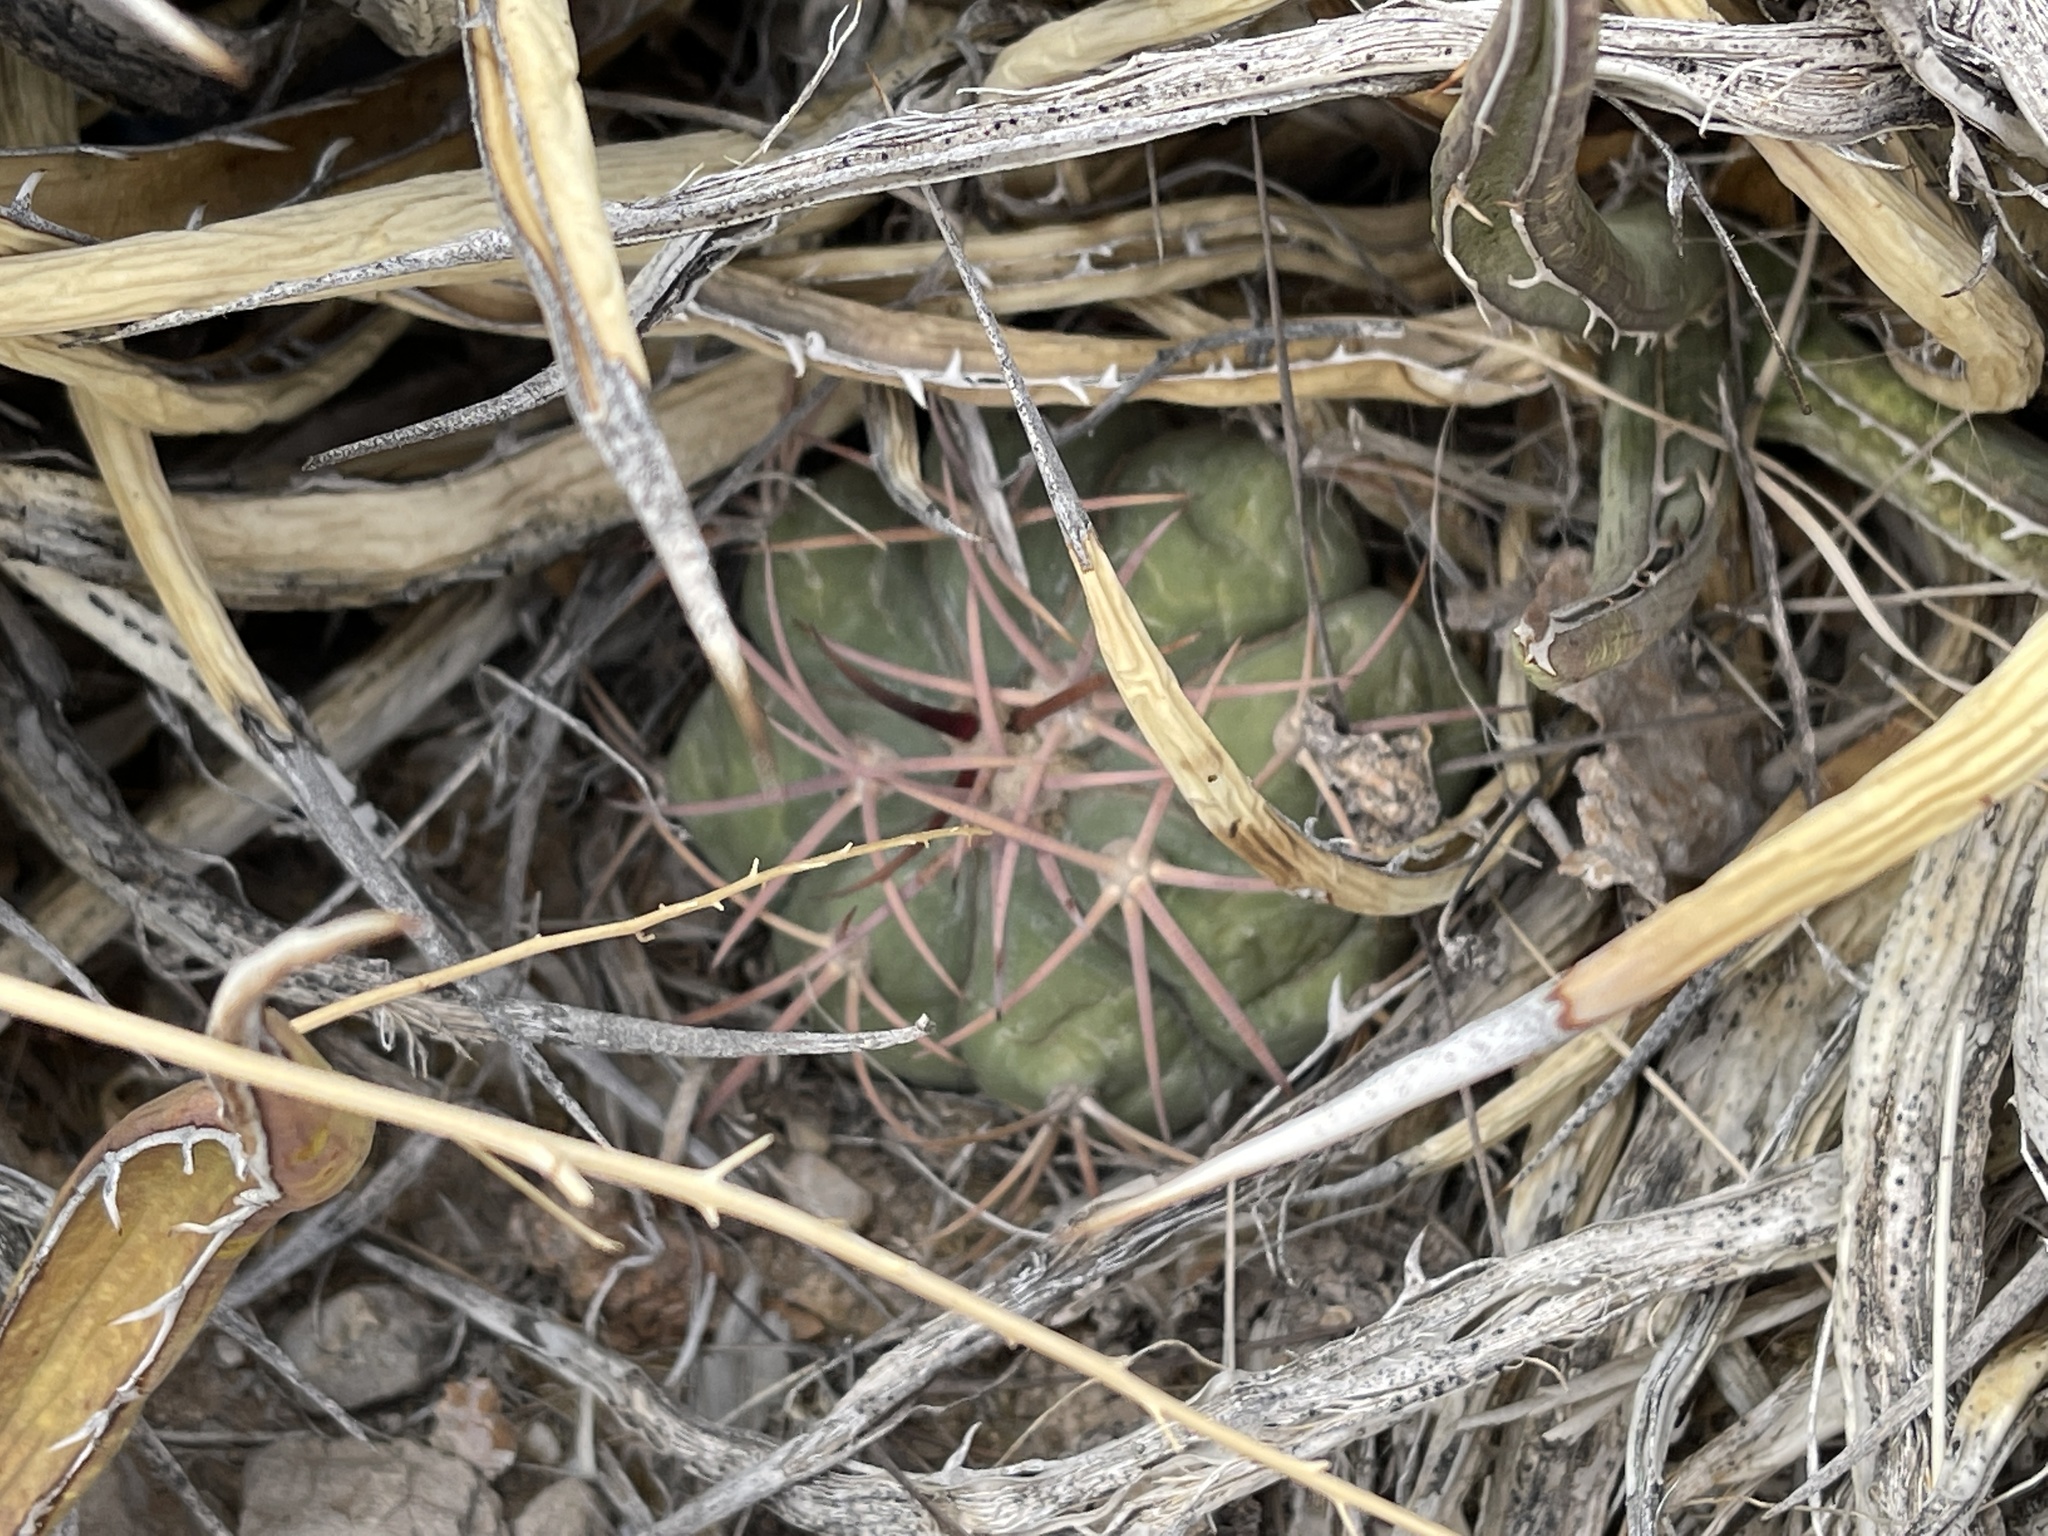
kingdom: Plantae
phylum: Tracheophyta
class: Magnoliopsida
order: Caryophyllales
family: Cactaceae
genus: Echinocactus
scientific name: Echinocactus horizonthalonius
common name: Devilshead
